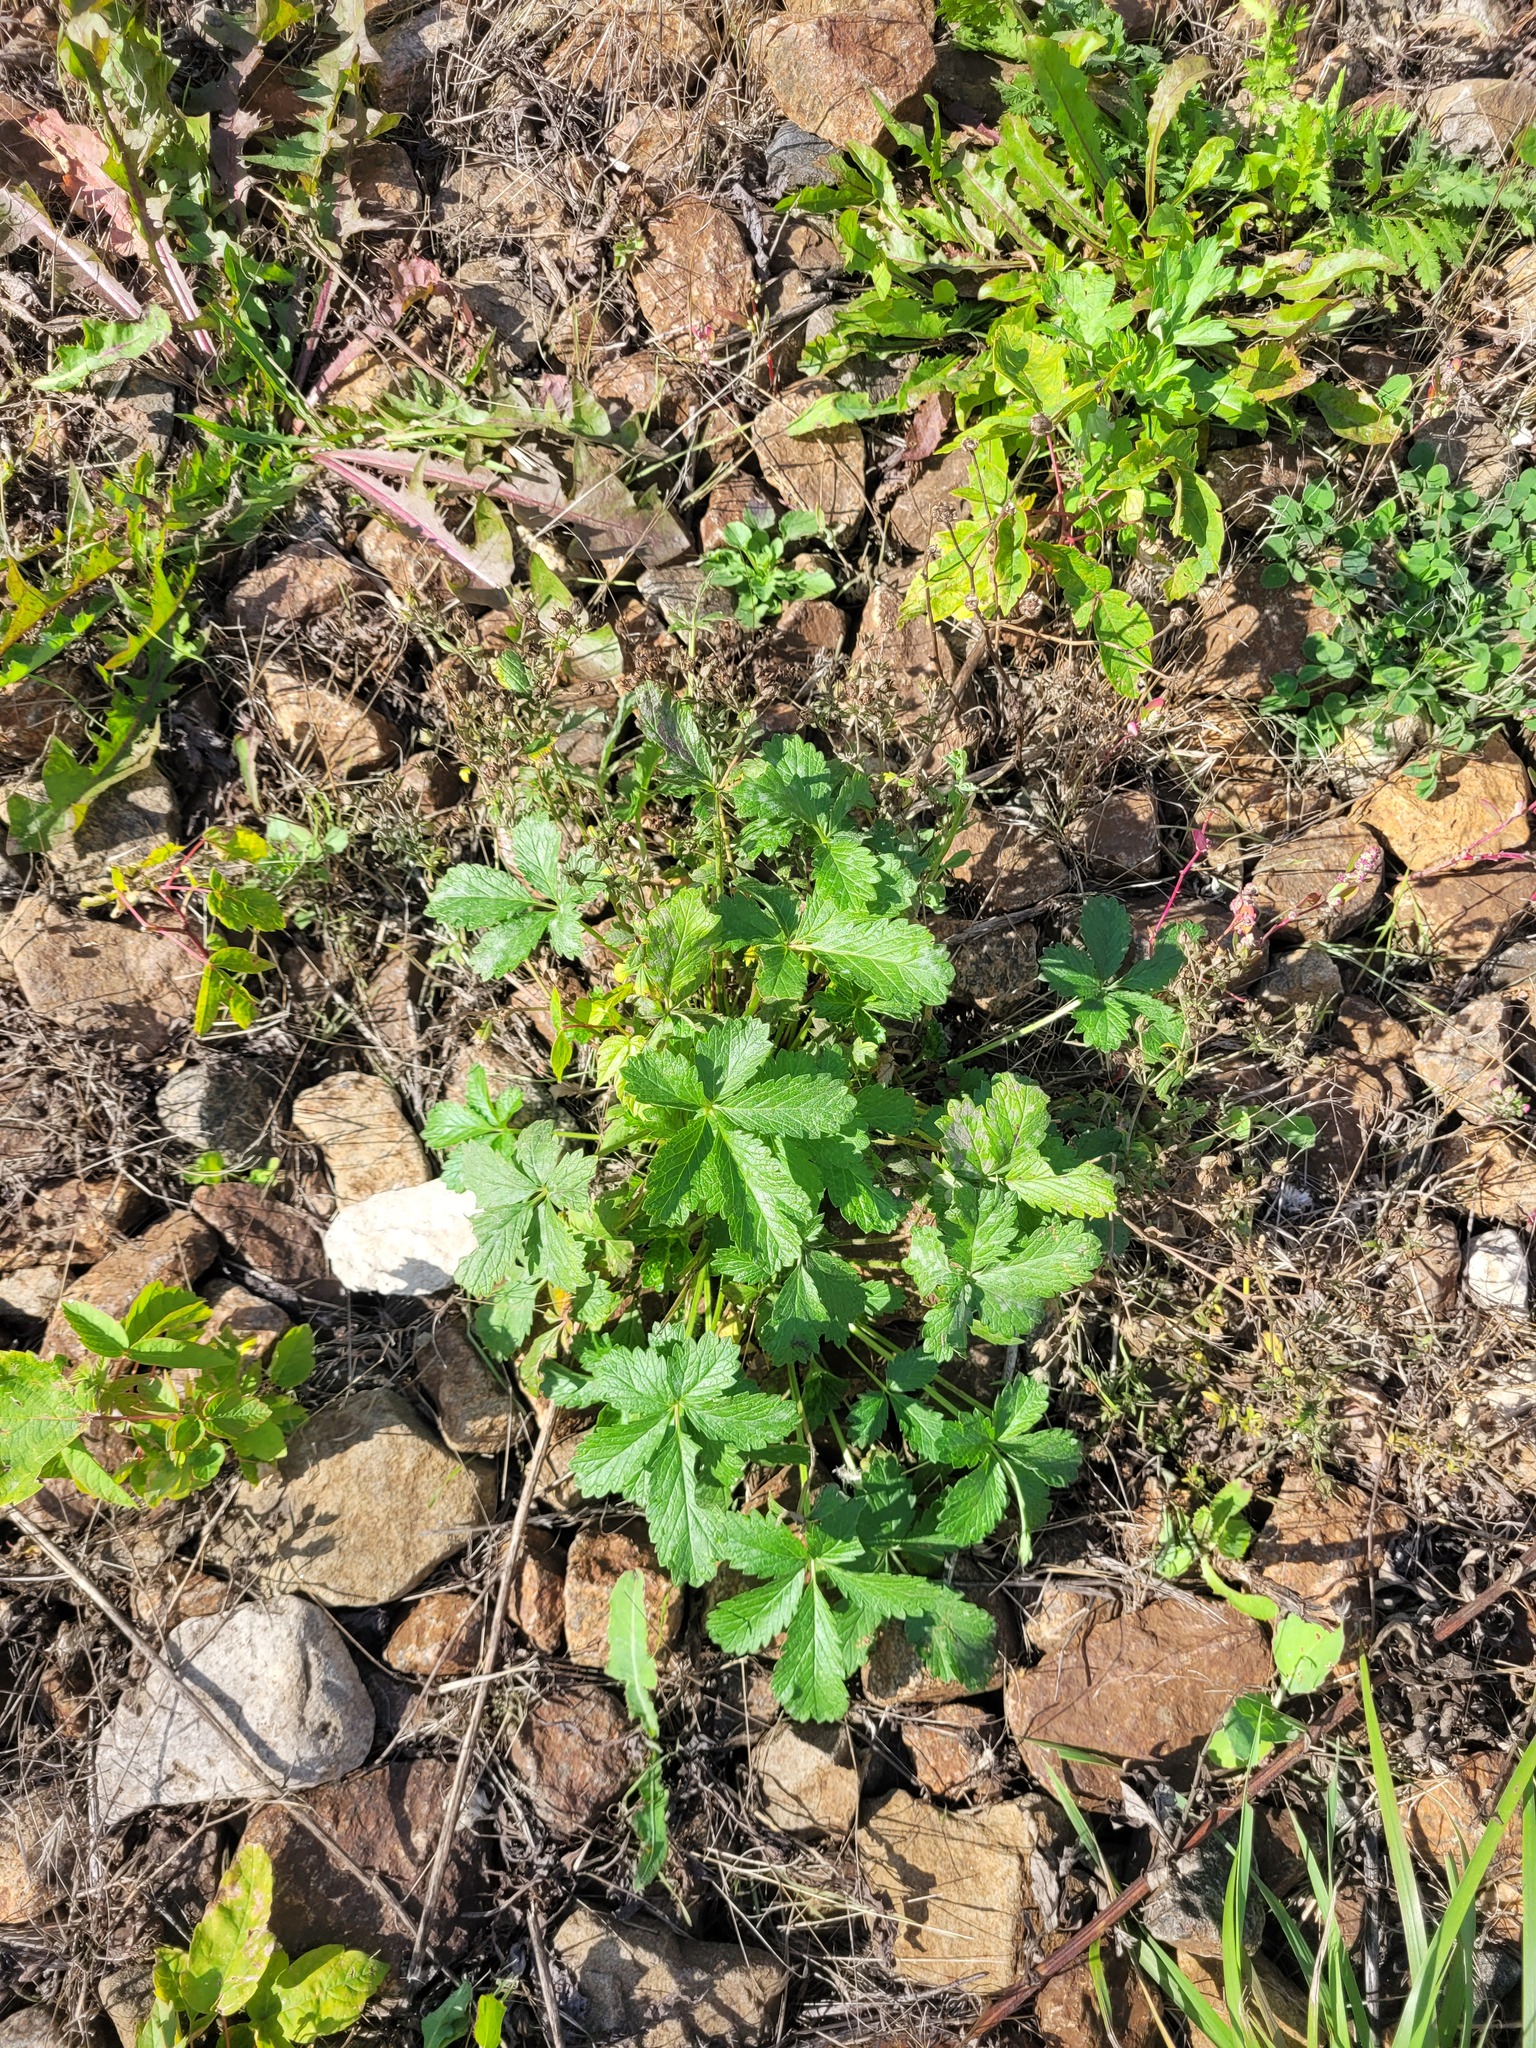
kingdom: Plantae
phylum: Tracheophyta
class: Magnoliopsida
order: Rosales
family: Rosaceae
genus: Potentilla
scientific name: Potentilla intermedia
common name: Downy cinquefoil
